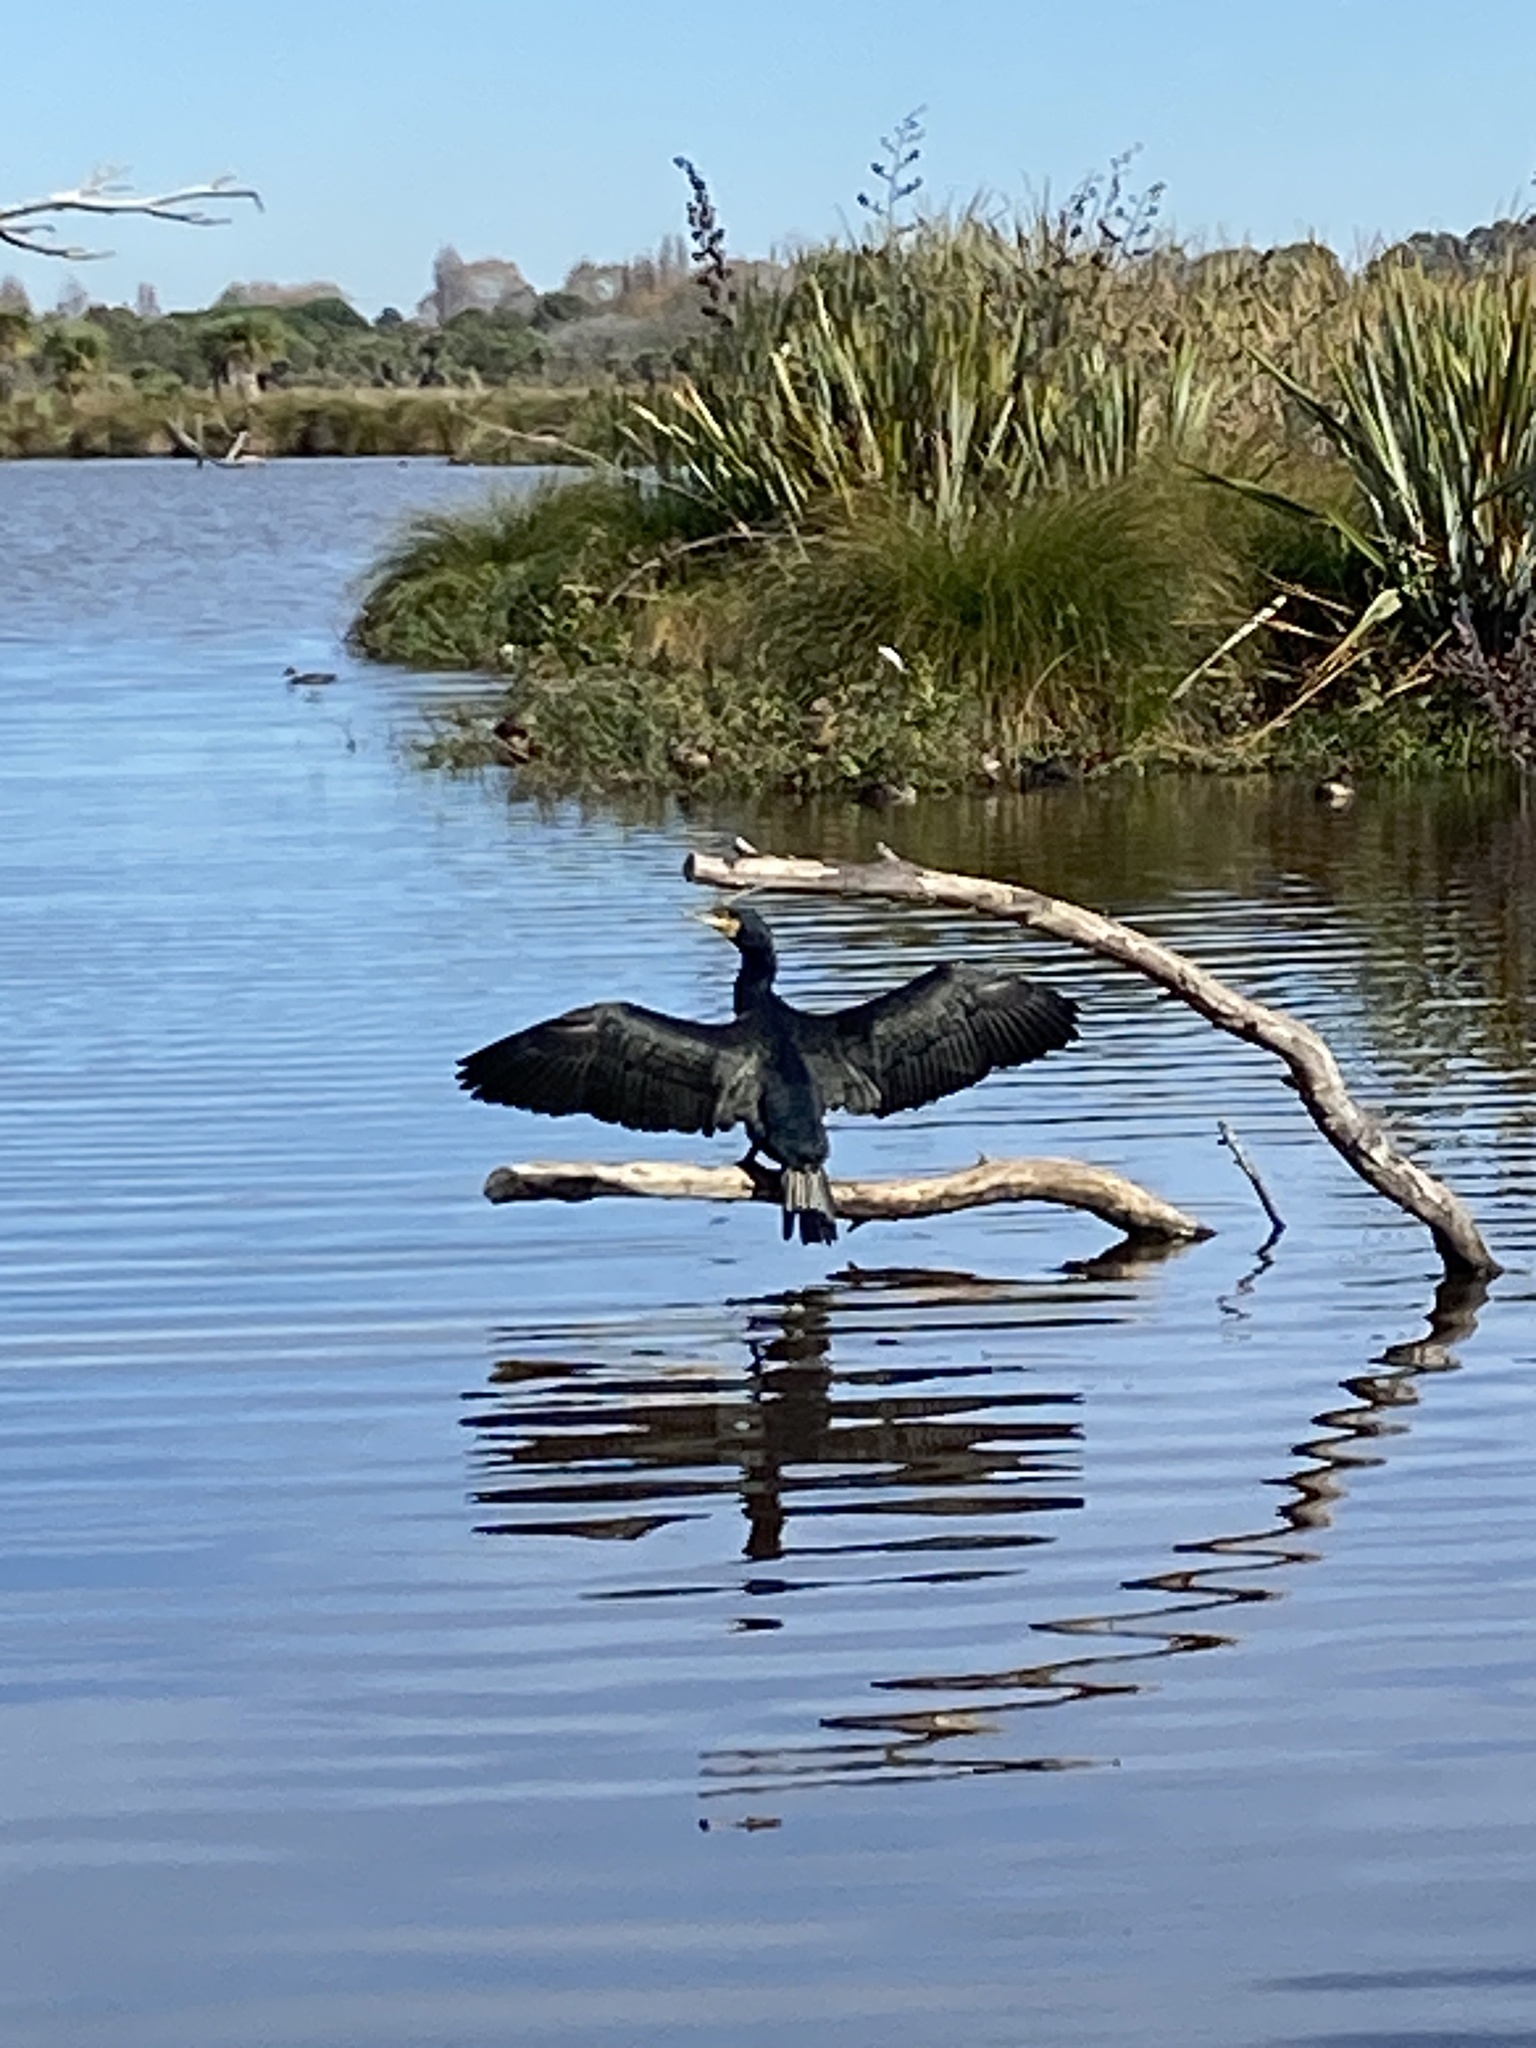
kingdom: Animalia
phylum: Chordata
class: Aves
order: Suliformes
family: Phalacrocoracidae
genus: Phalacrocorax
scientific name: Phalacrocorax carbo
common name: Great cormorant
